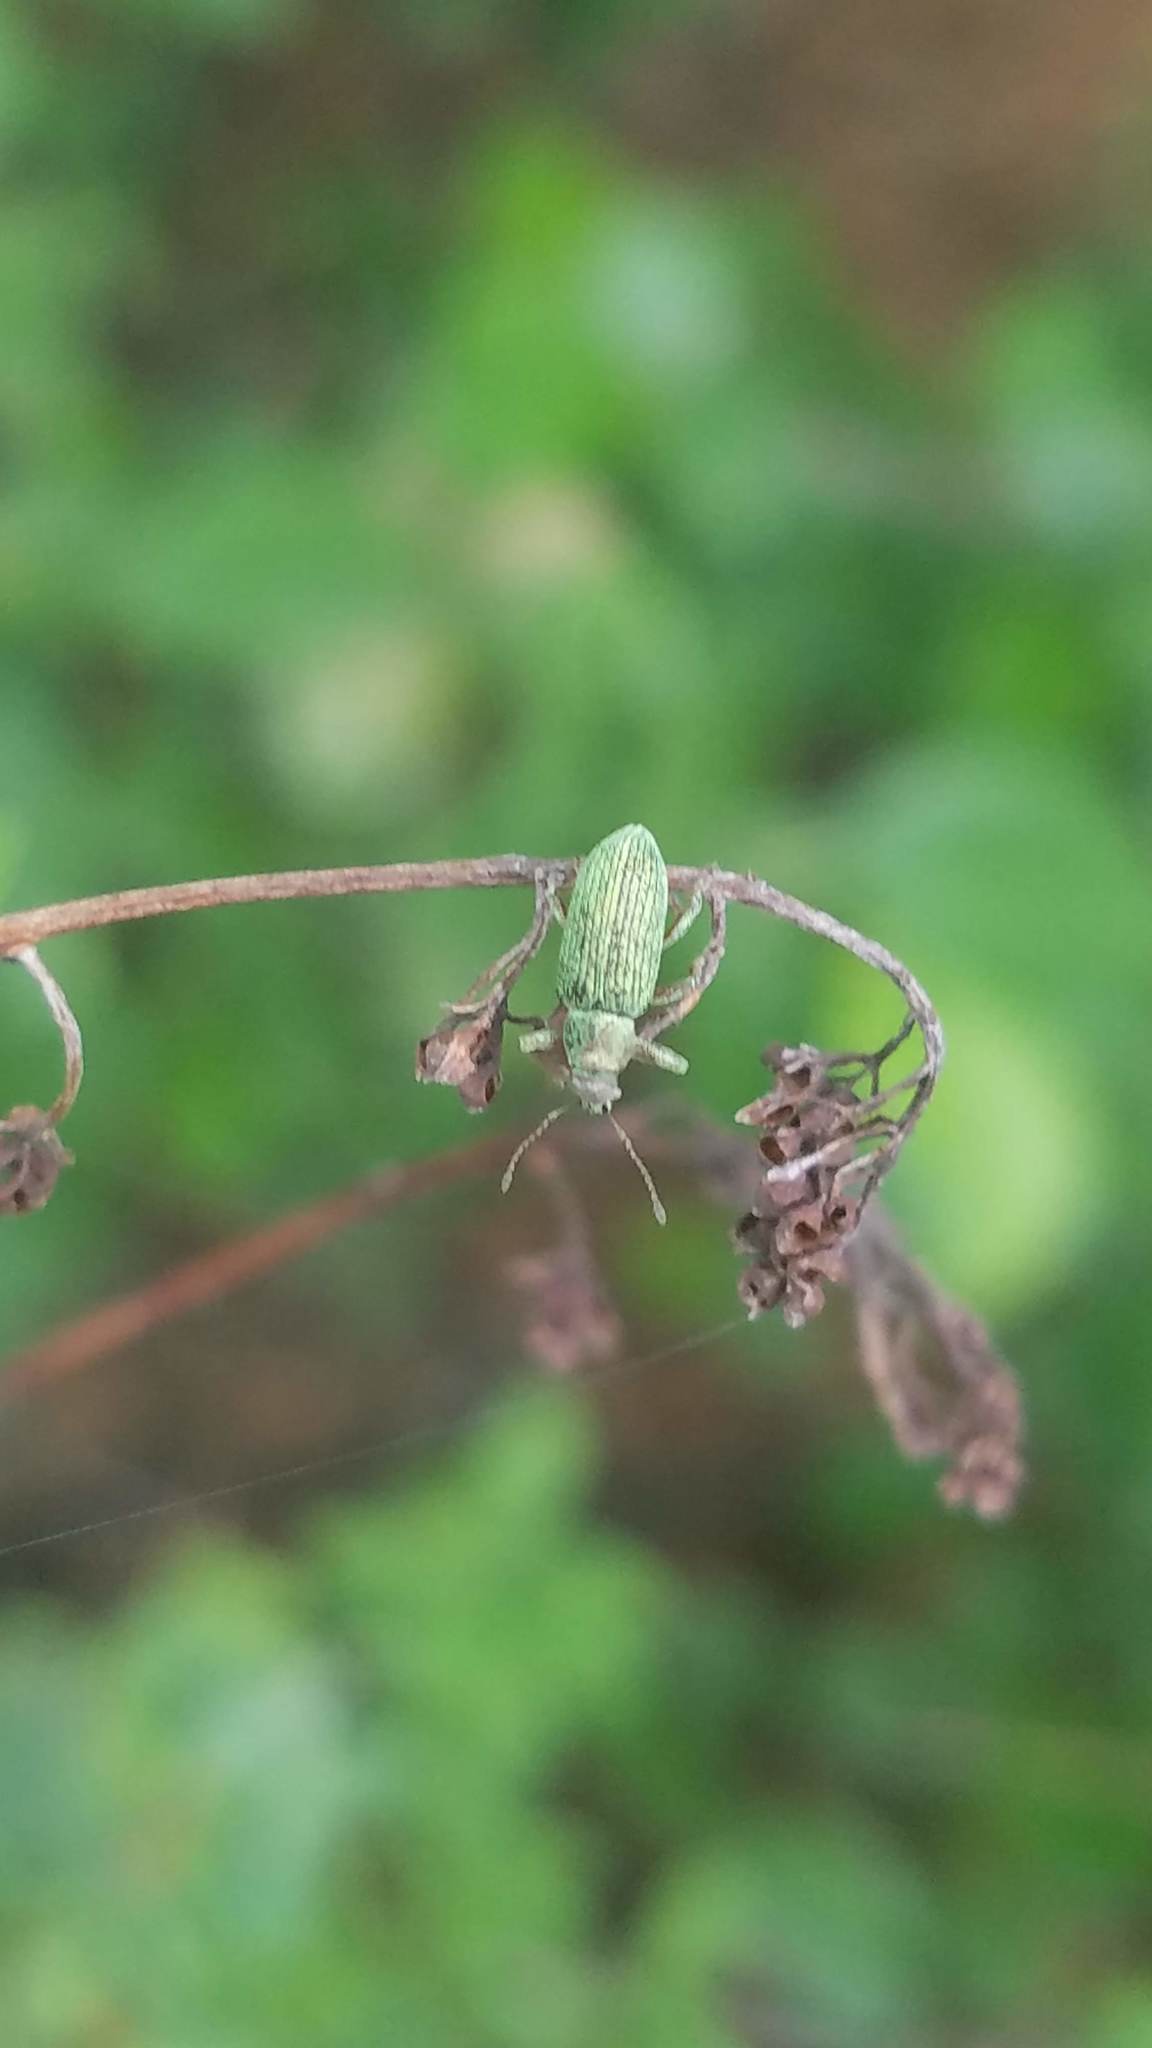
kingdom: Animalia
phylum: Arthropoda
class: Insecta
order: Coleoptera
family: Curculionidae
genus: Polydrusus
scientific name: Polydrusus formosus
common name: Weevil
